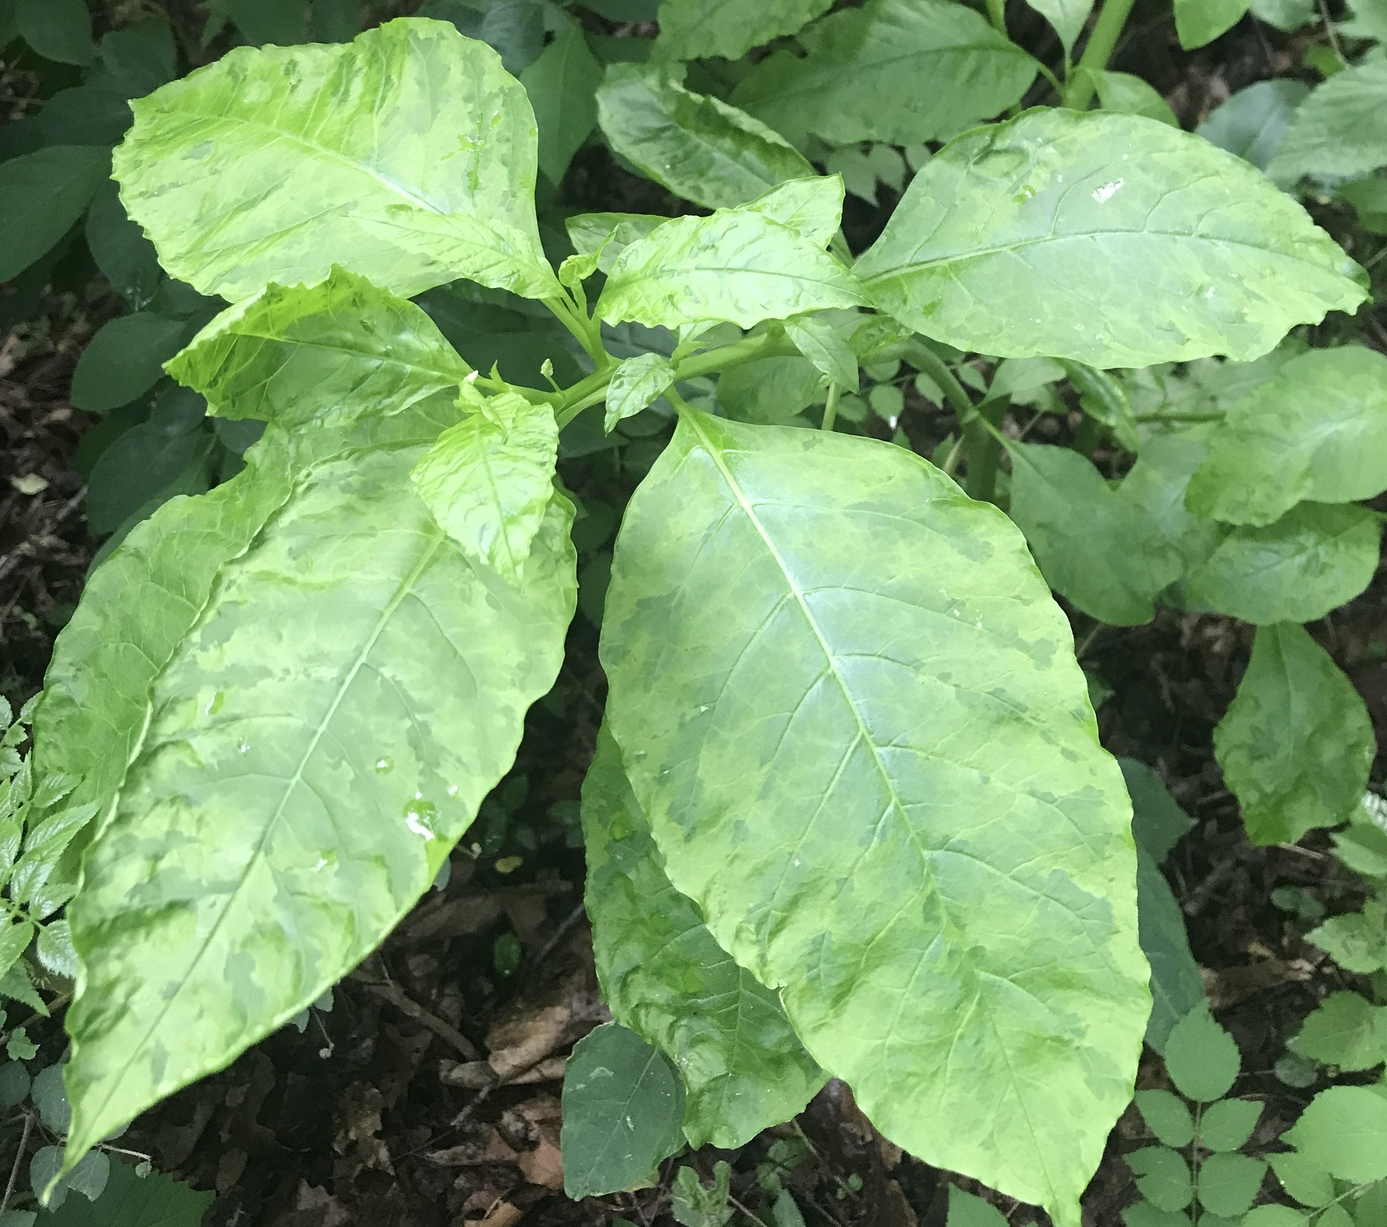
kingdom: Viruses
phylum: Pisuviricota
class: Stelpaviricetes
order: Patatavirales
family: Potyviridae
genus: Potyvirus
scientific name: Potyvirus Pokeweed mosaic virus
